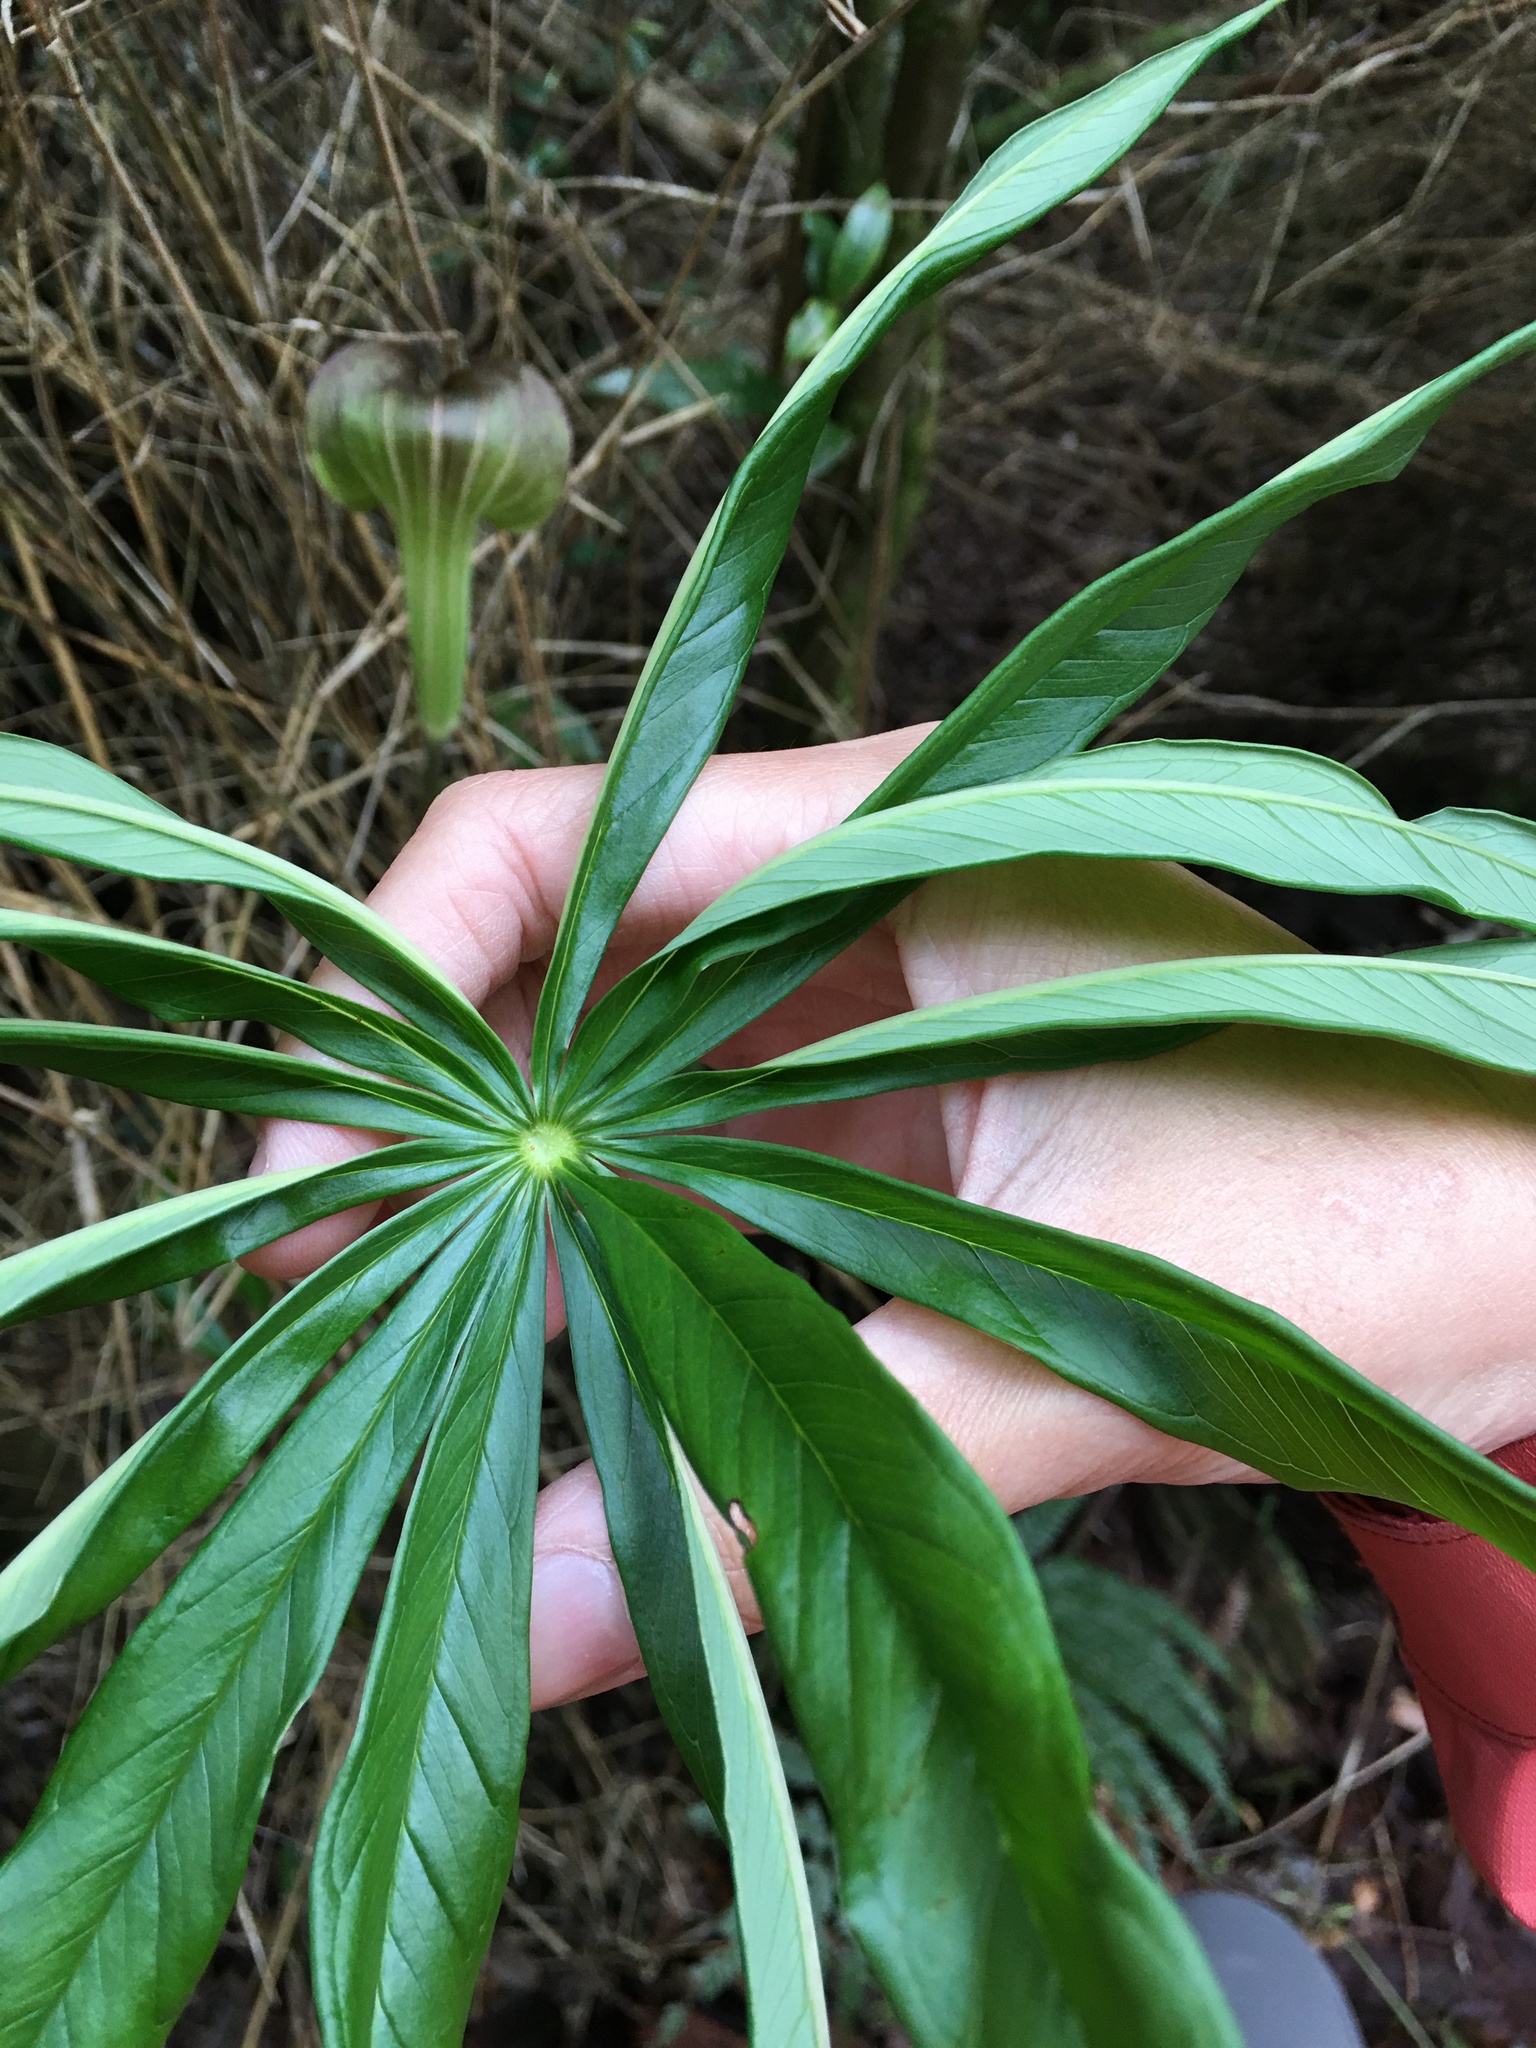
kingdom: Plantae
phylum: Tracheophyta
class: Liliopsida
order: Alismatales
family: Araceae
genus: Arisaema
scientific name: Arisaema consanguineum
